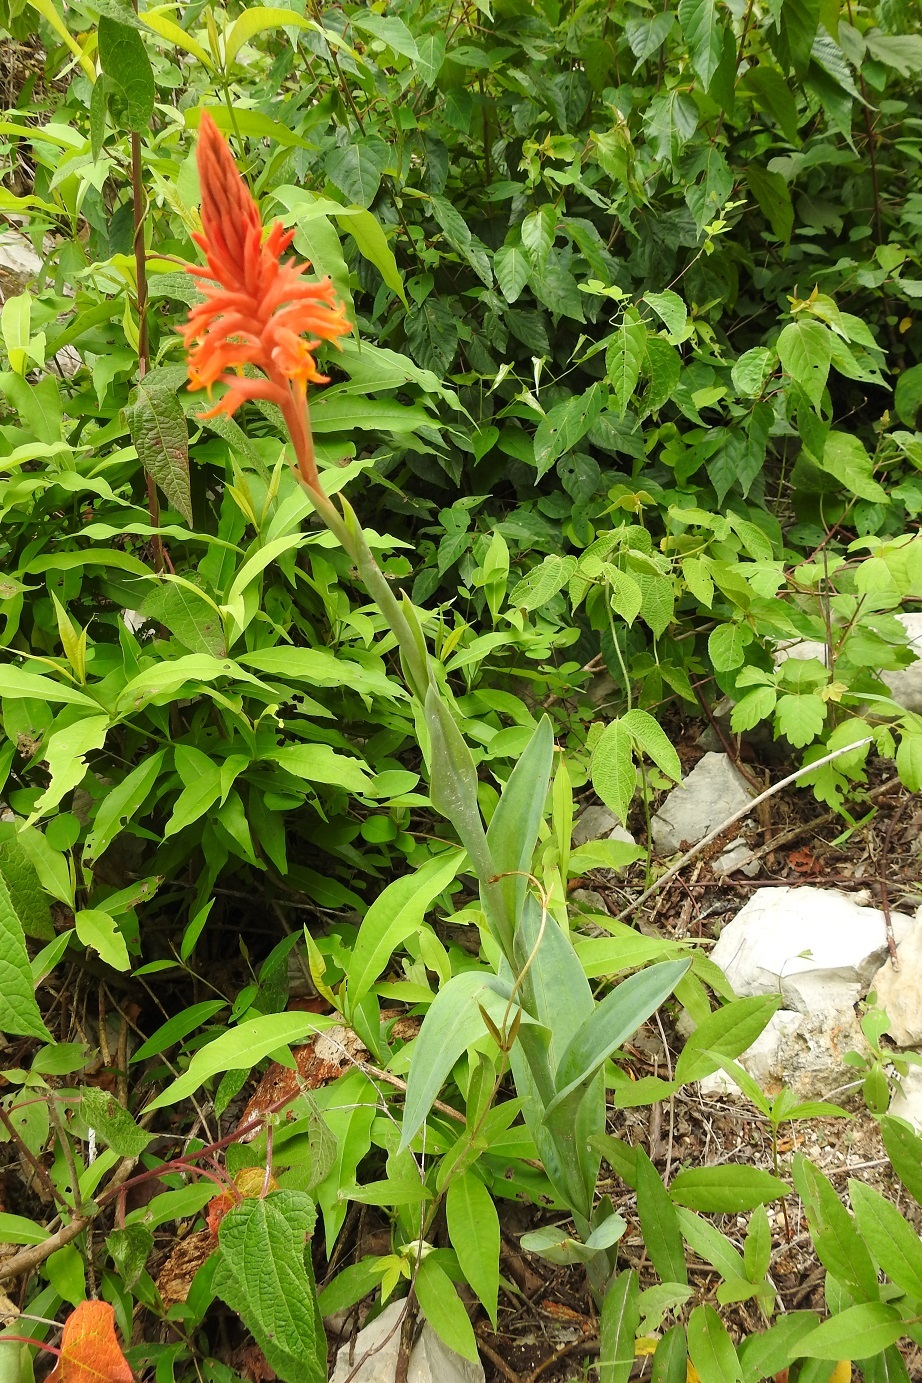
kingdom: Plantae
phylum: Tracheophyta
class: Liliopsida
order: Asparagales
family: Orchidaceae
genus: Dichromanthus
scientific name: Dichromanthus cinnabarinus
